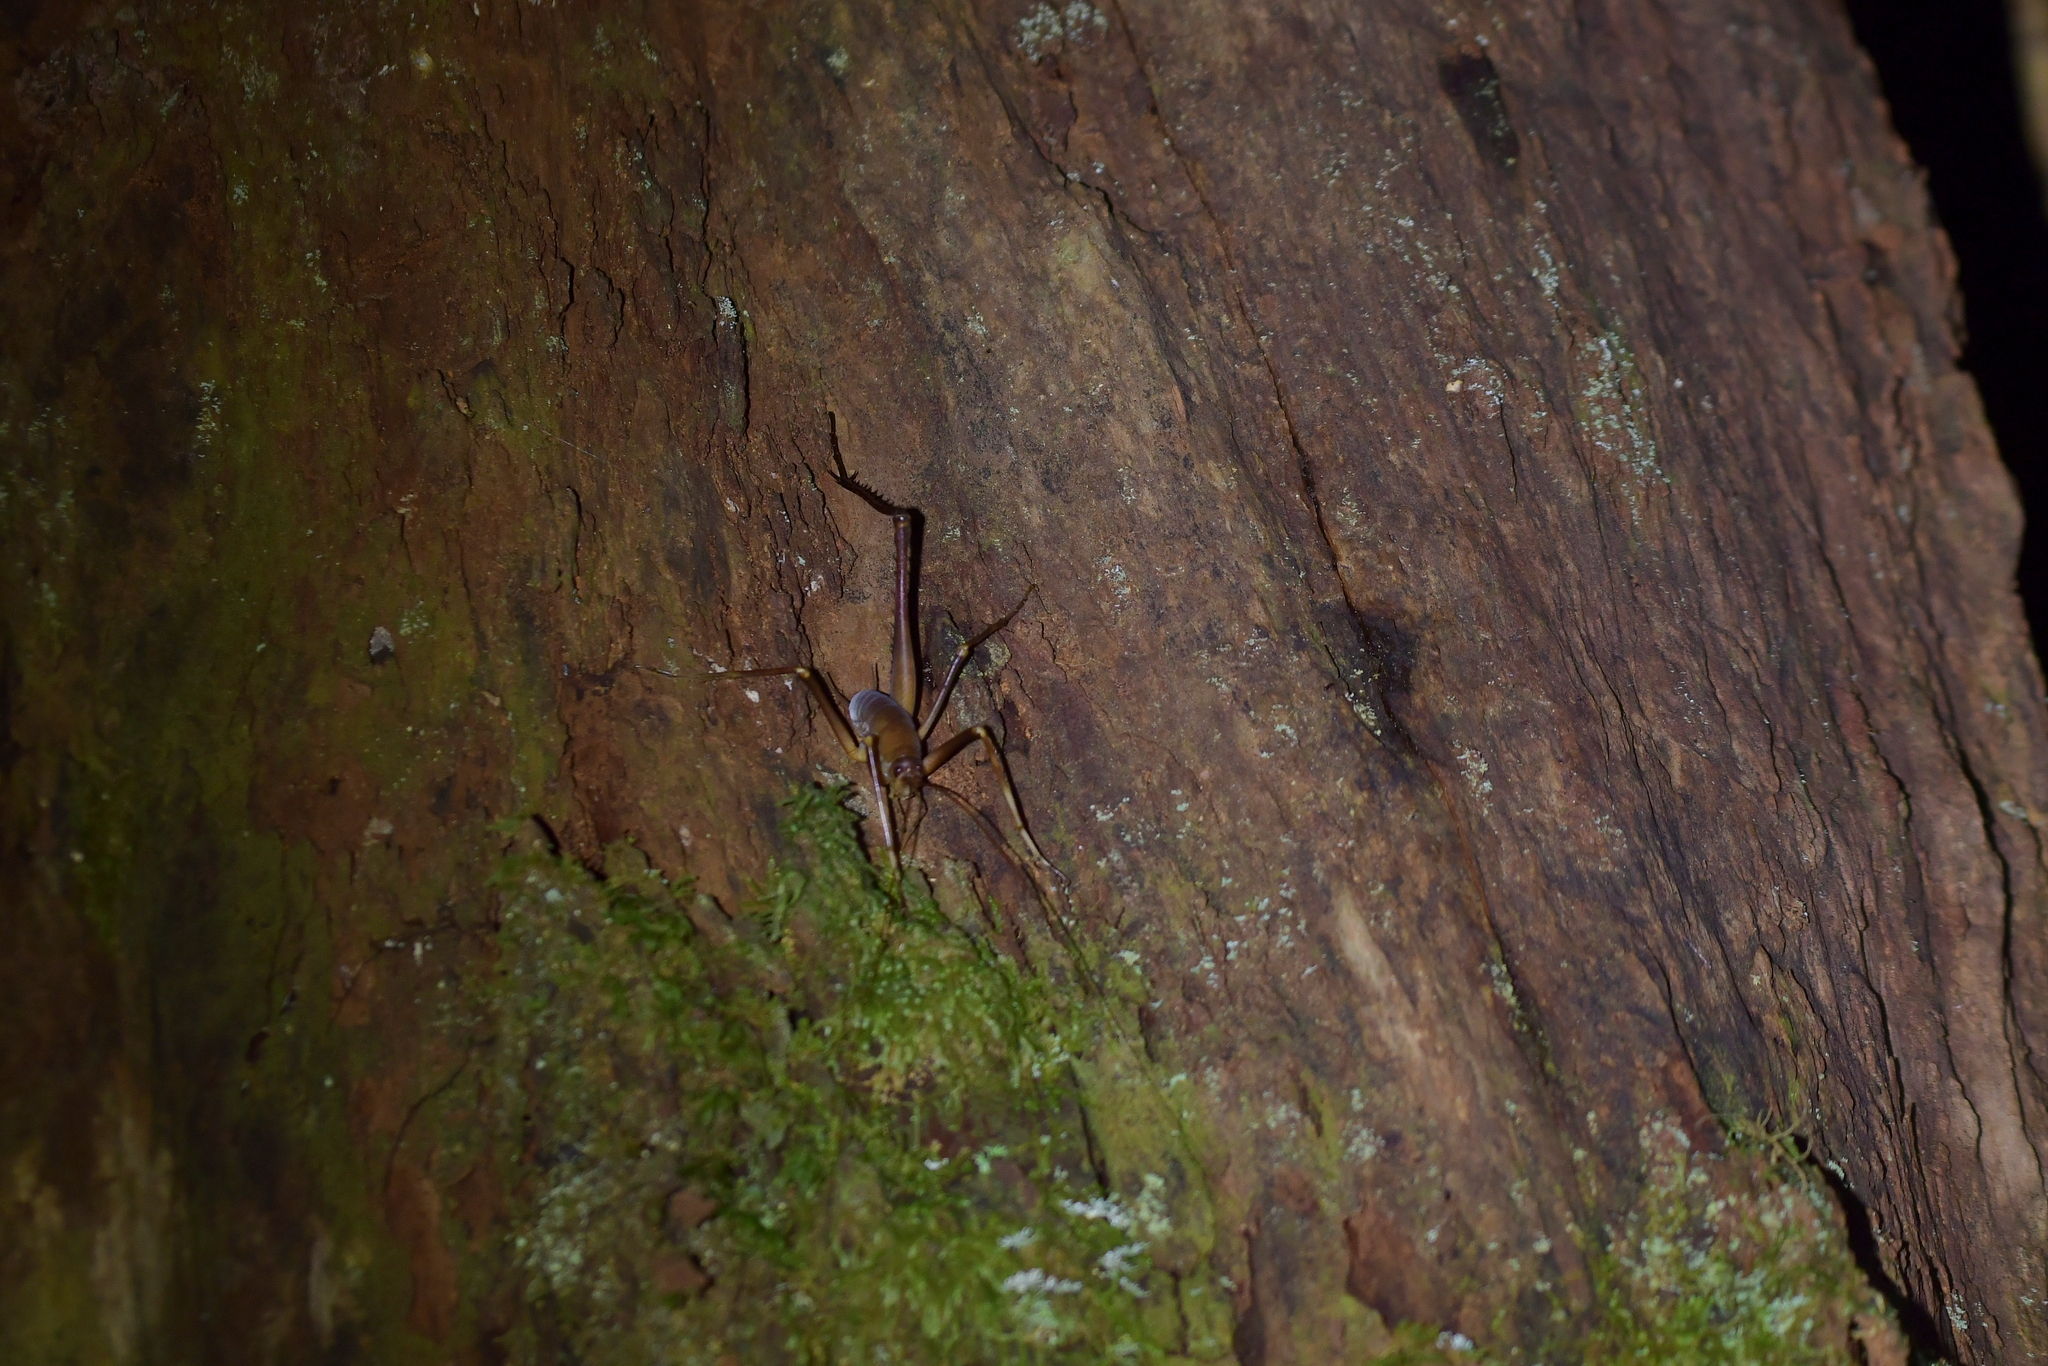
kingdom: Animalia
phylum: Arthropoda
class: Insecta
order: Orthoptera
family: Rhaphidophoridae
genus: Pachyrhamma
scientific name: Pachyrhamma longipes
